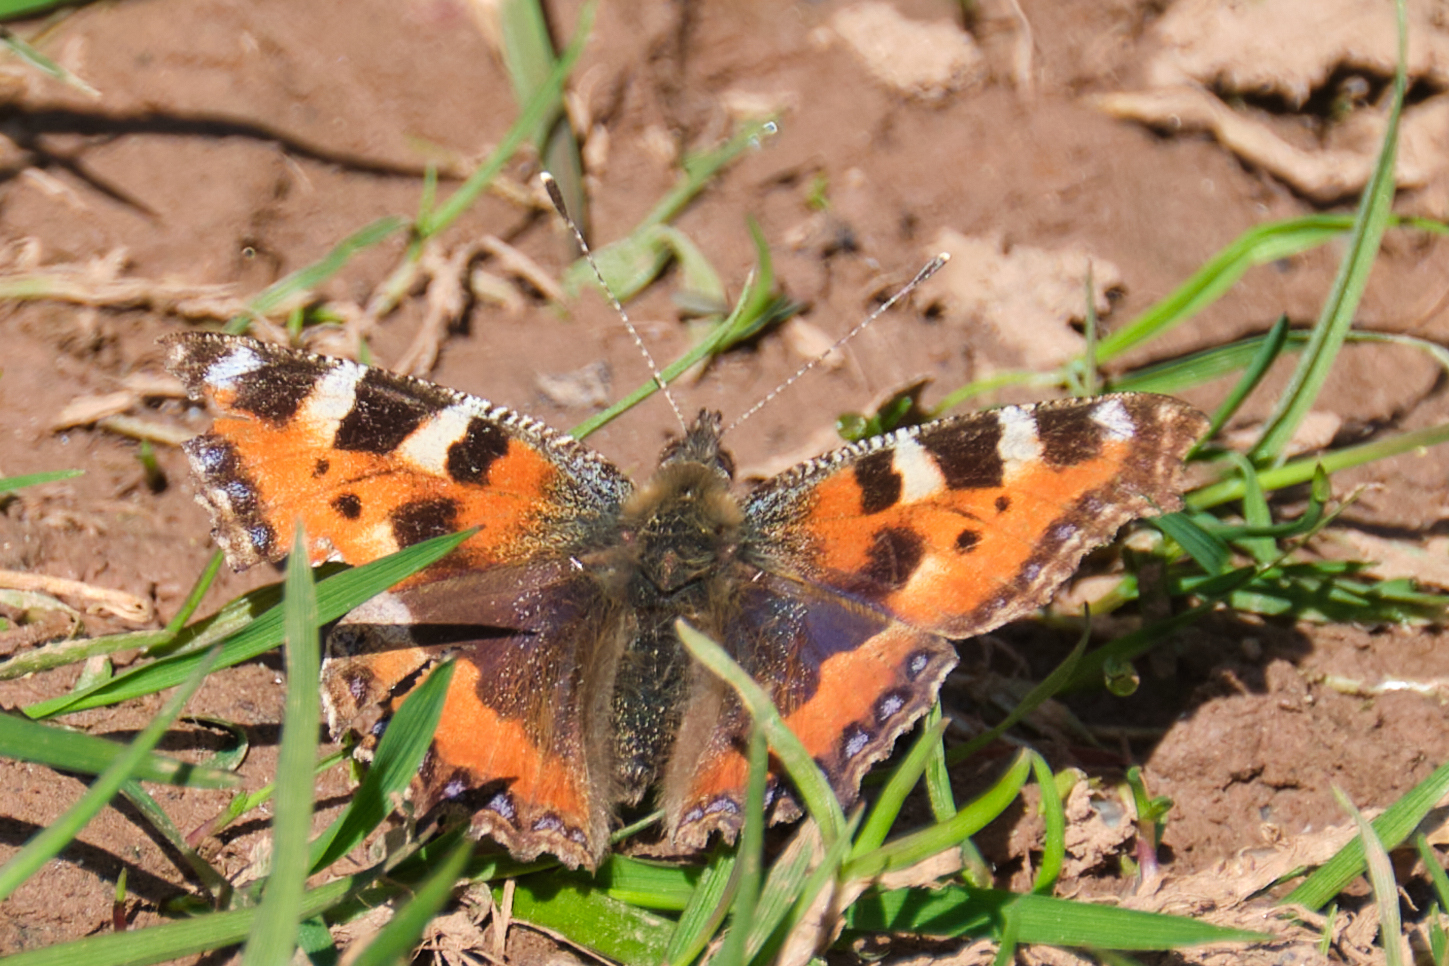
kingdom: Animalia
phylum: Arthropoda
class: Insecta
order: Lepidoptera
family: Nymphalidae
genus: Aglais
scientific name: Aglais urticae
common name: Small tortoiseshell
